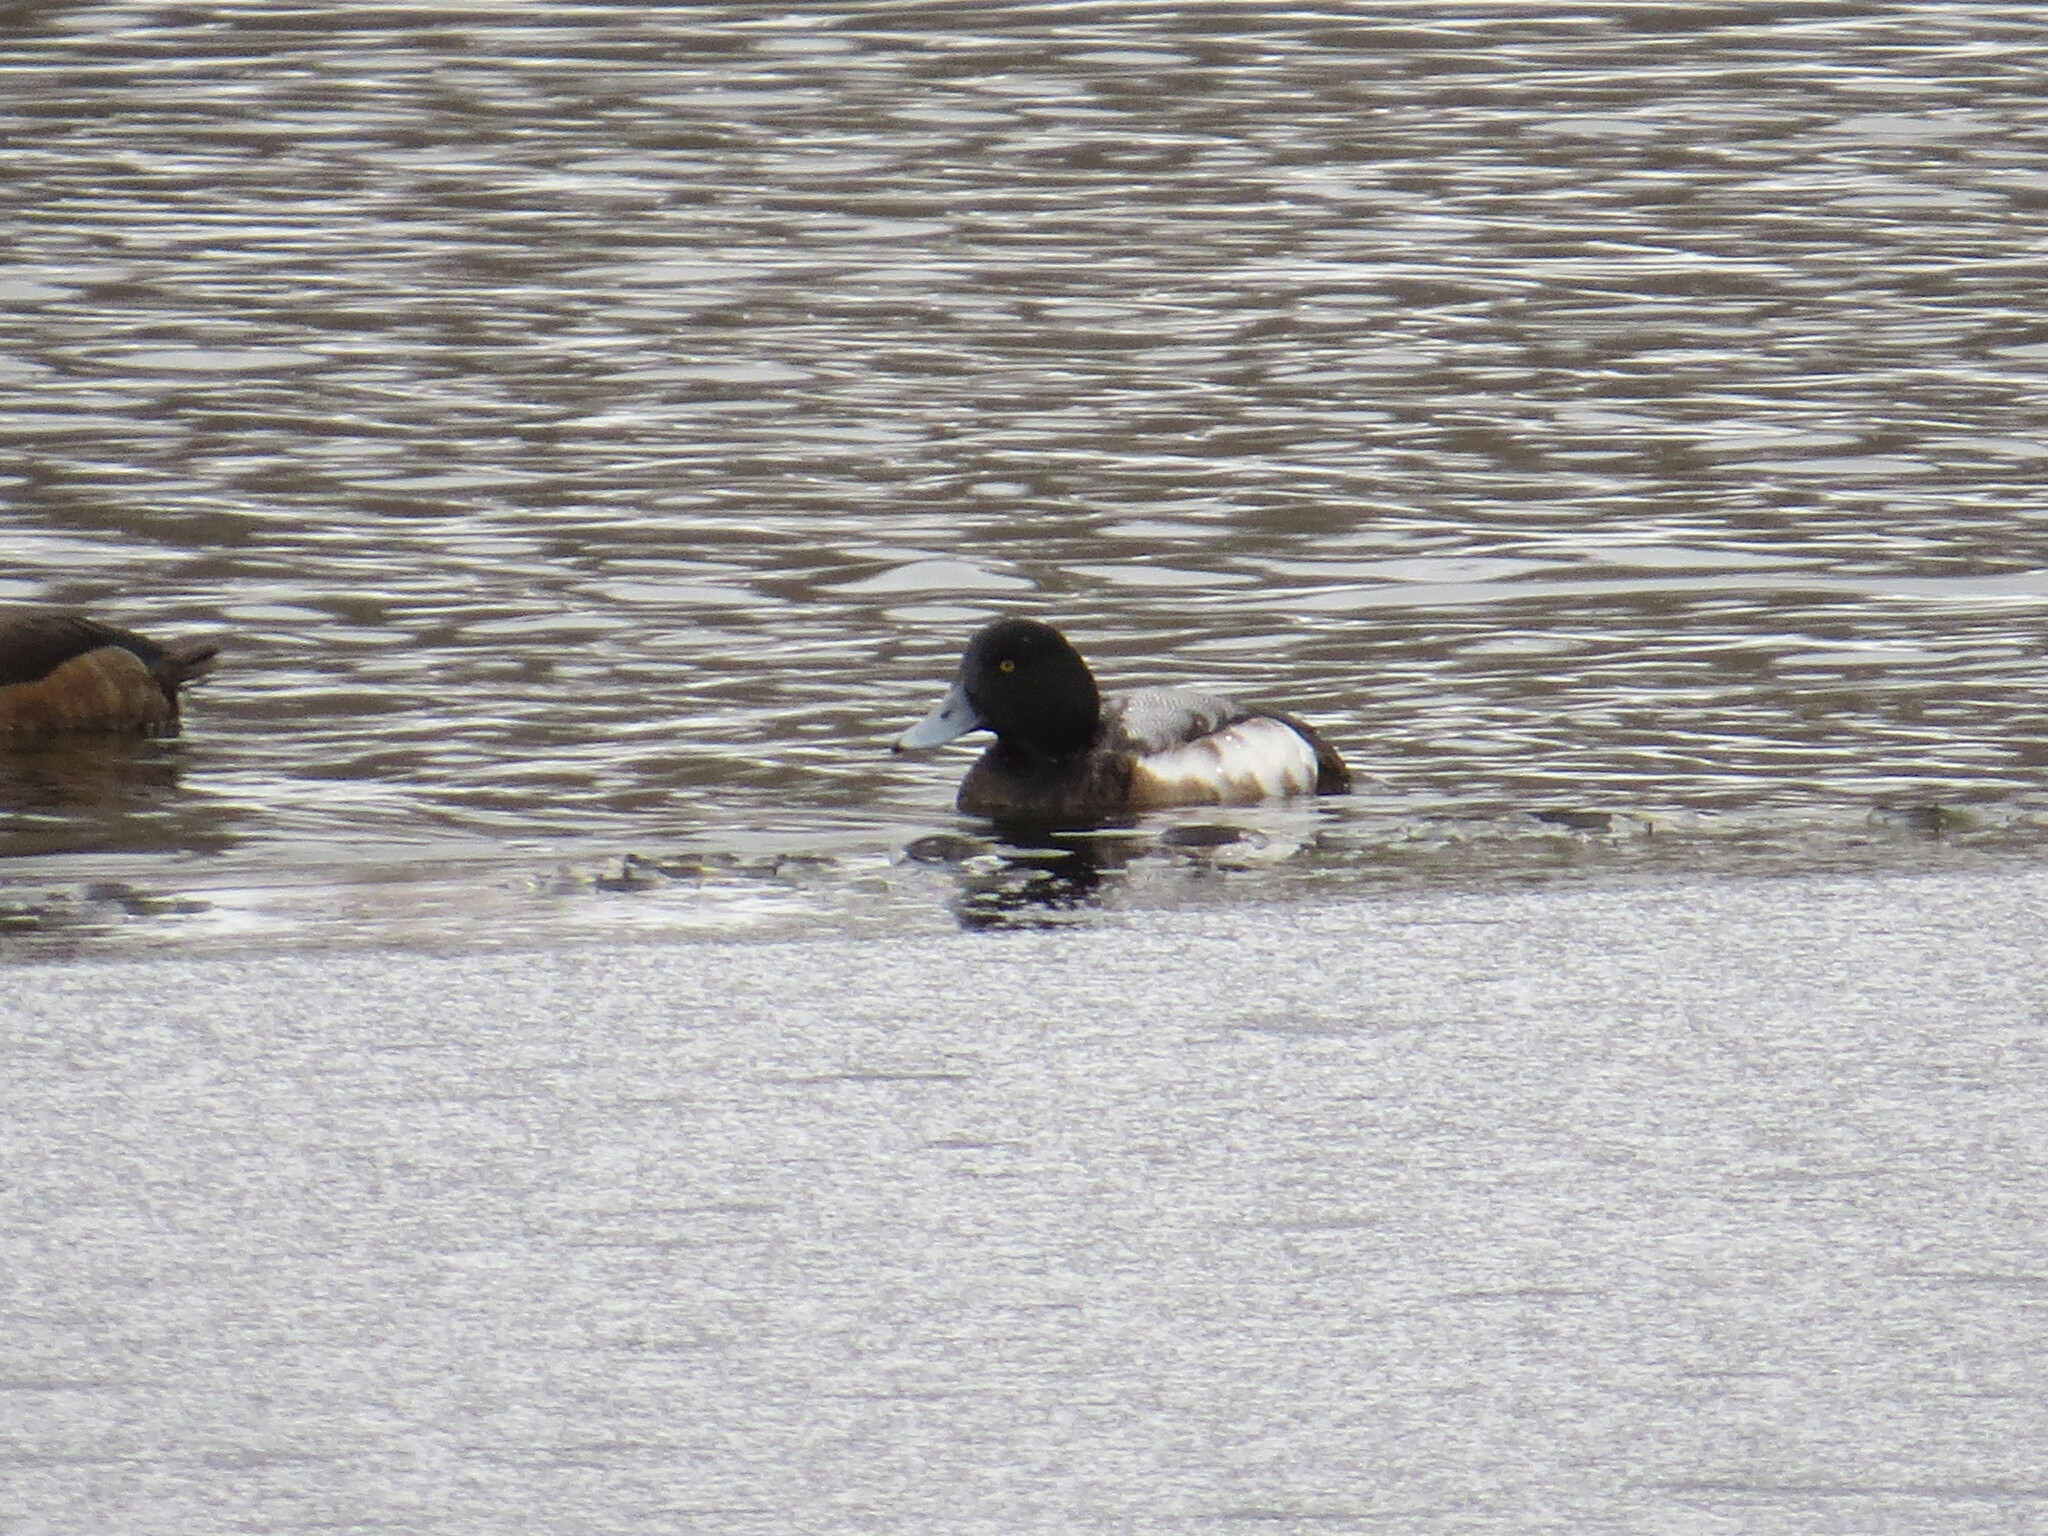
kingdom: Animalia
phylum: Chordata
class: Aves
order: Anseriformes
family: Anatidae
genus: Aythya
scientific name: Aythya marila
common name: Greater scaup
